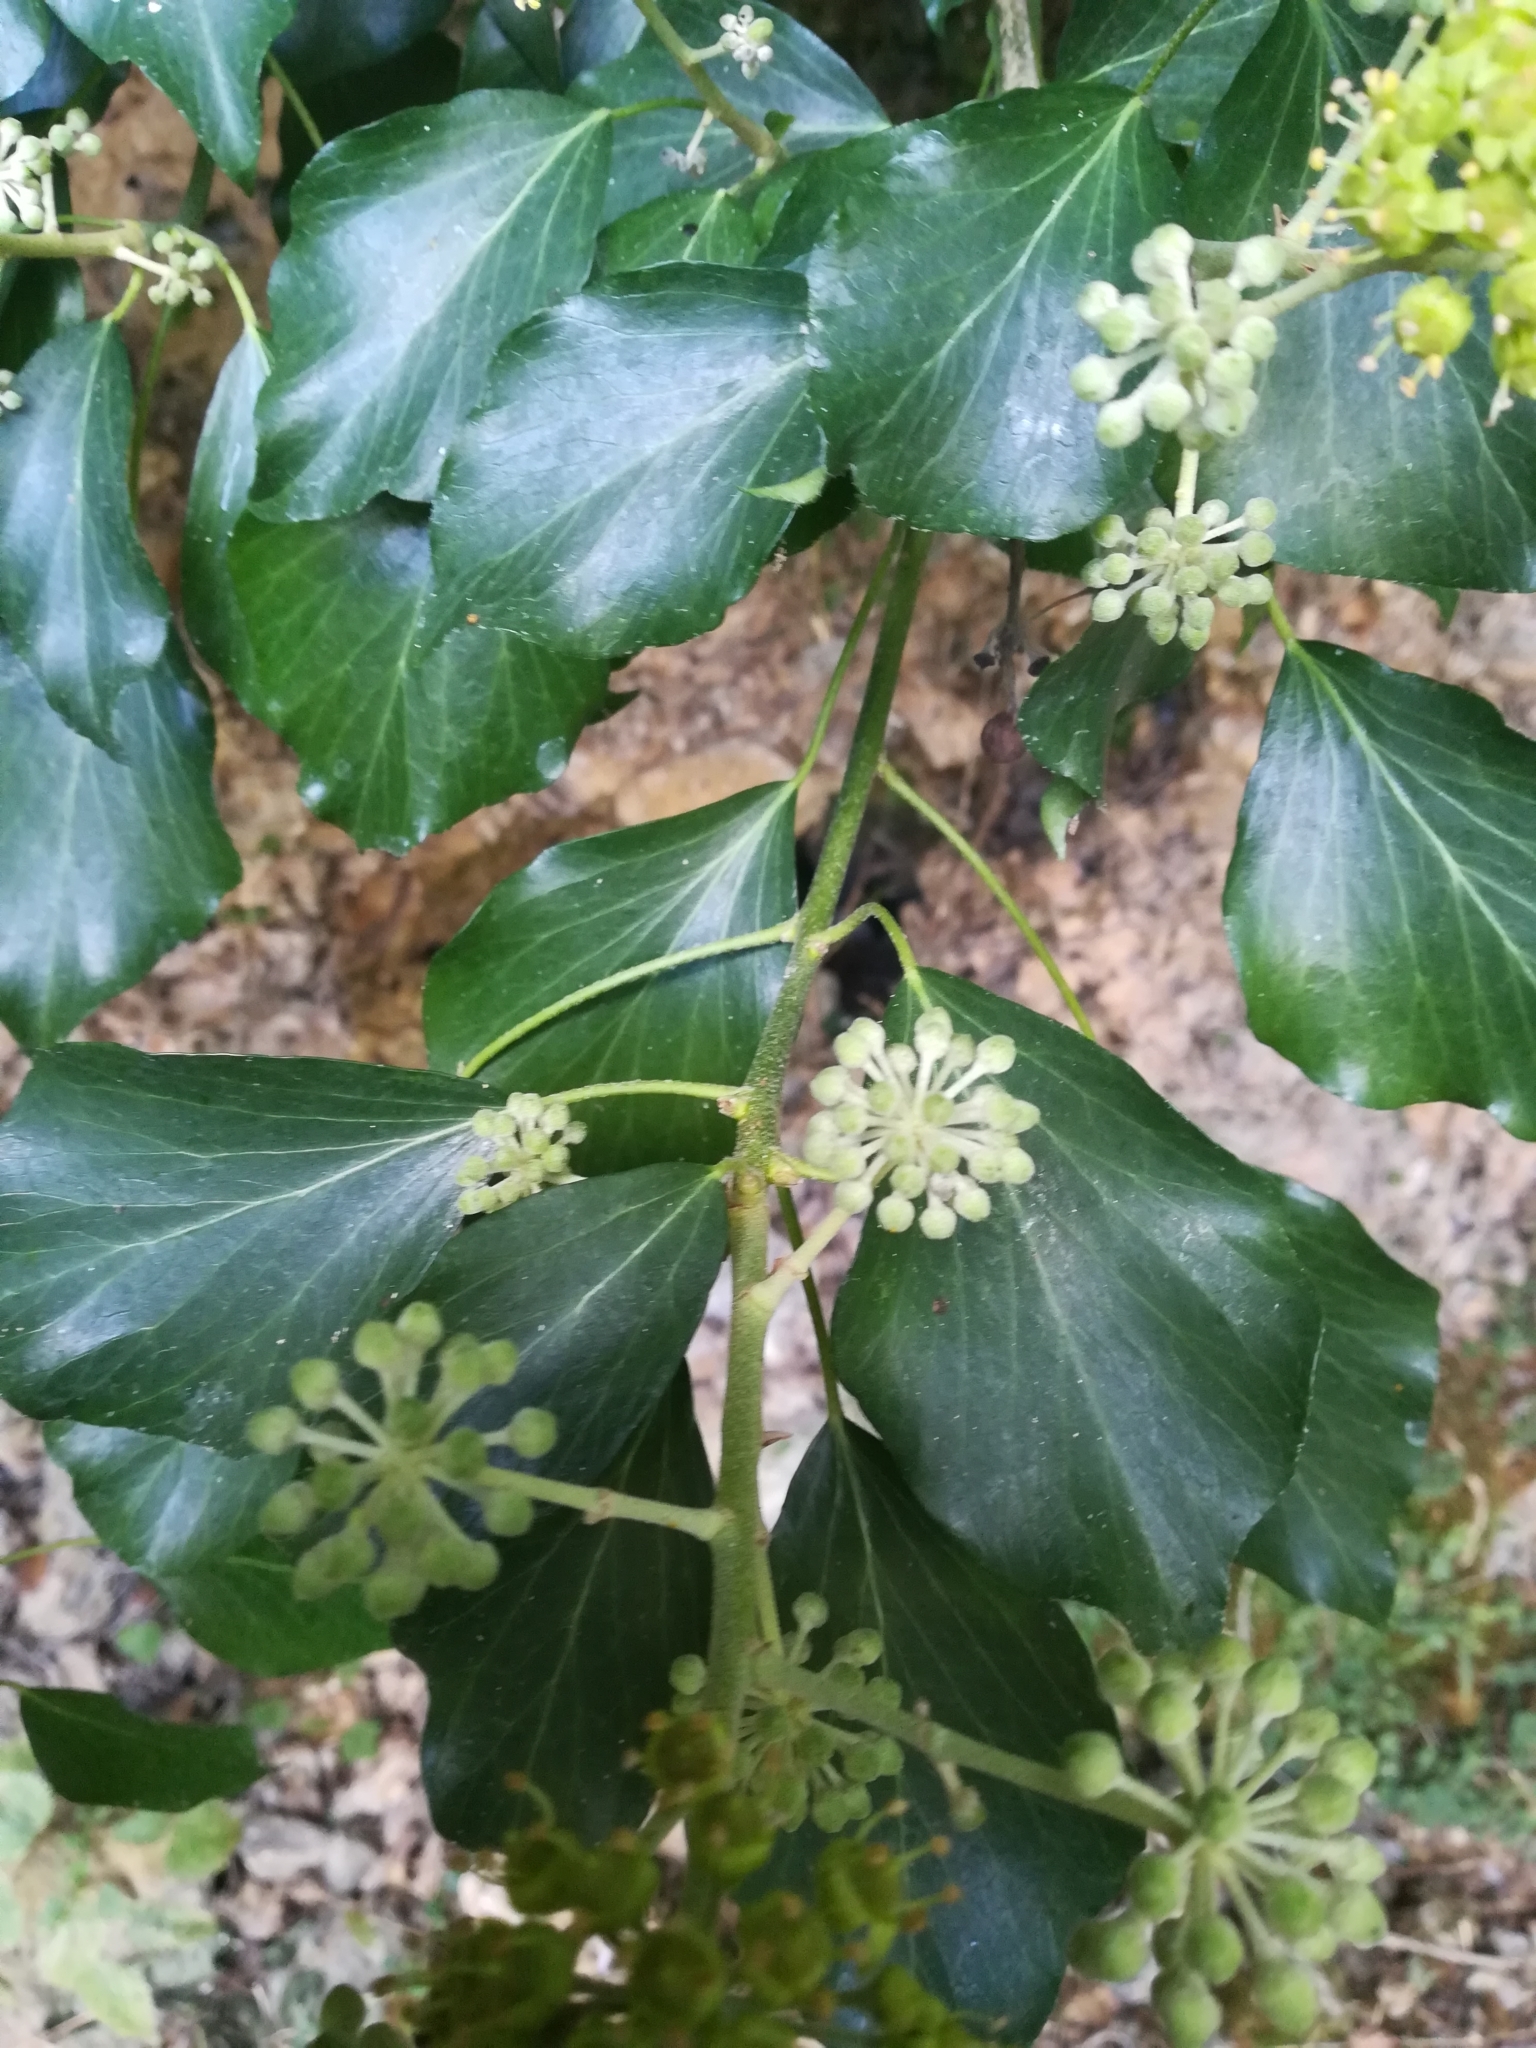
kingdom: Plantae
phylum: Tracheophyta
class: Magnoliopsida
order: Apiales
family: Araliaceae
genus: Hedera
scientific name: Hedera helix
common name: Ivy
